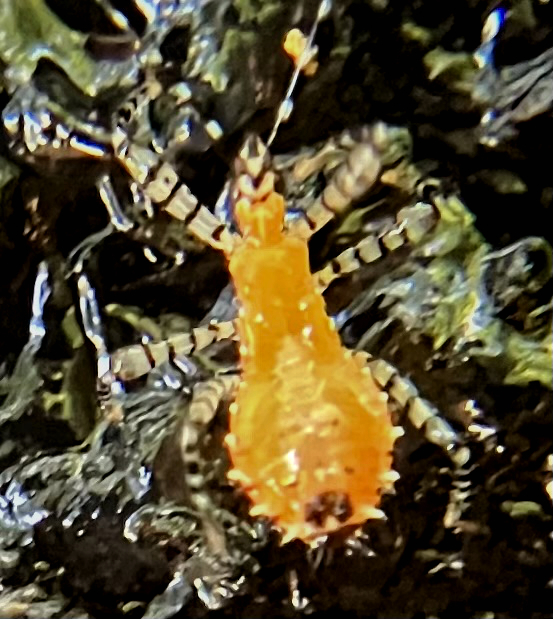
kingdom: Animalia
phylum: Arthropoda
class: Insecta
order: Hemiptera
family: Reduviidae
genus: Pselliopus
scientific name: Pselliopus cinctus
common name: Ringed assassin bug
